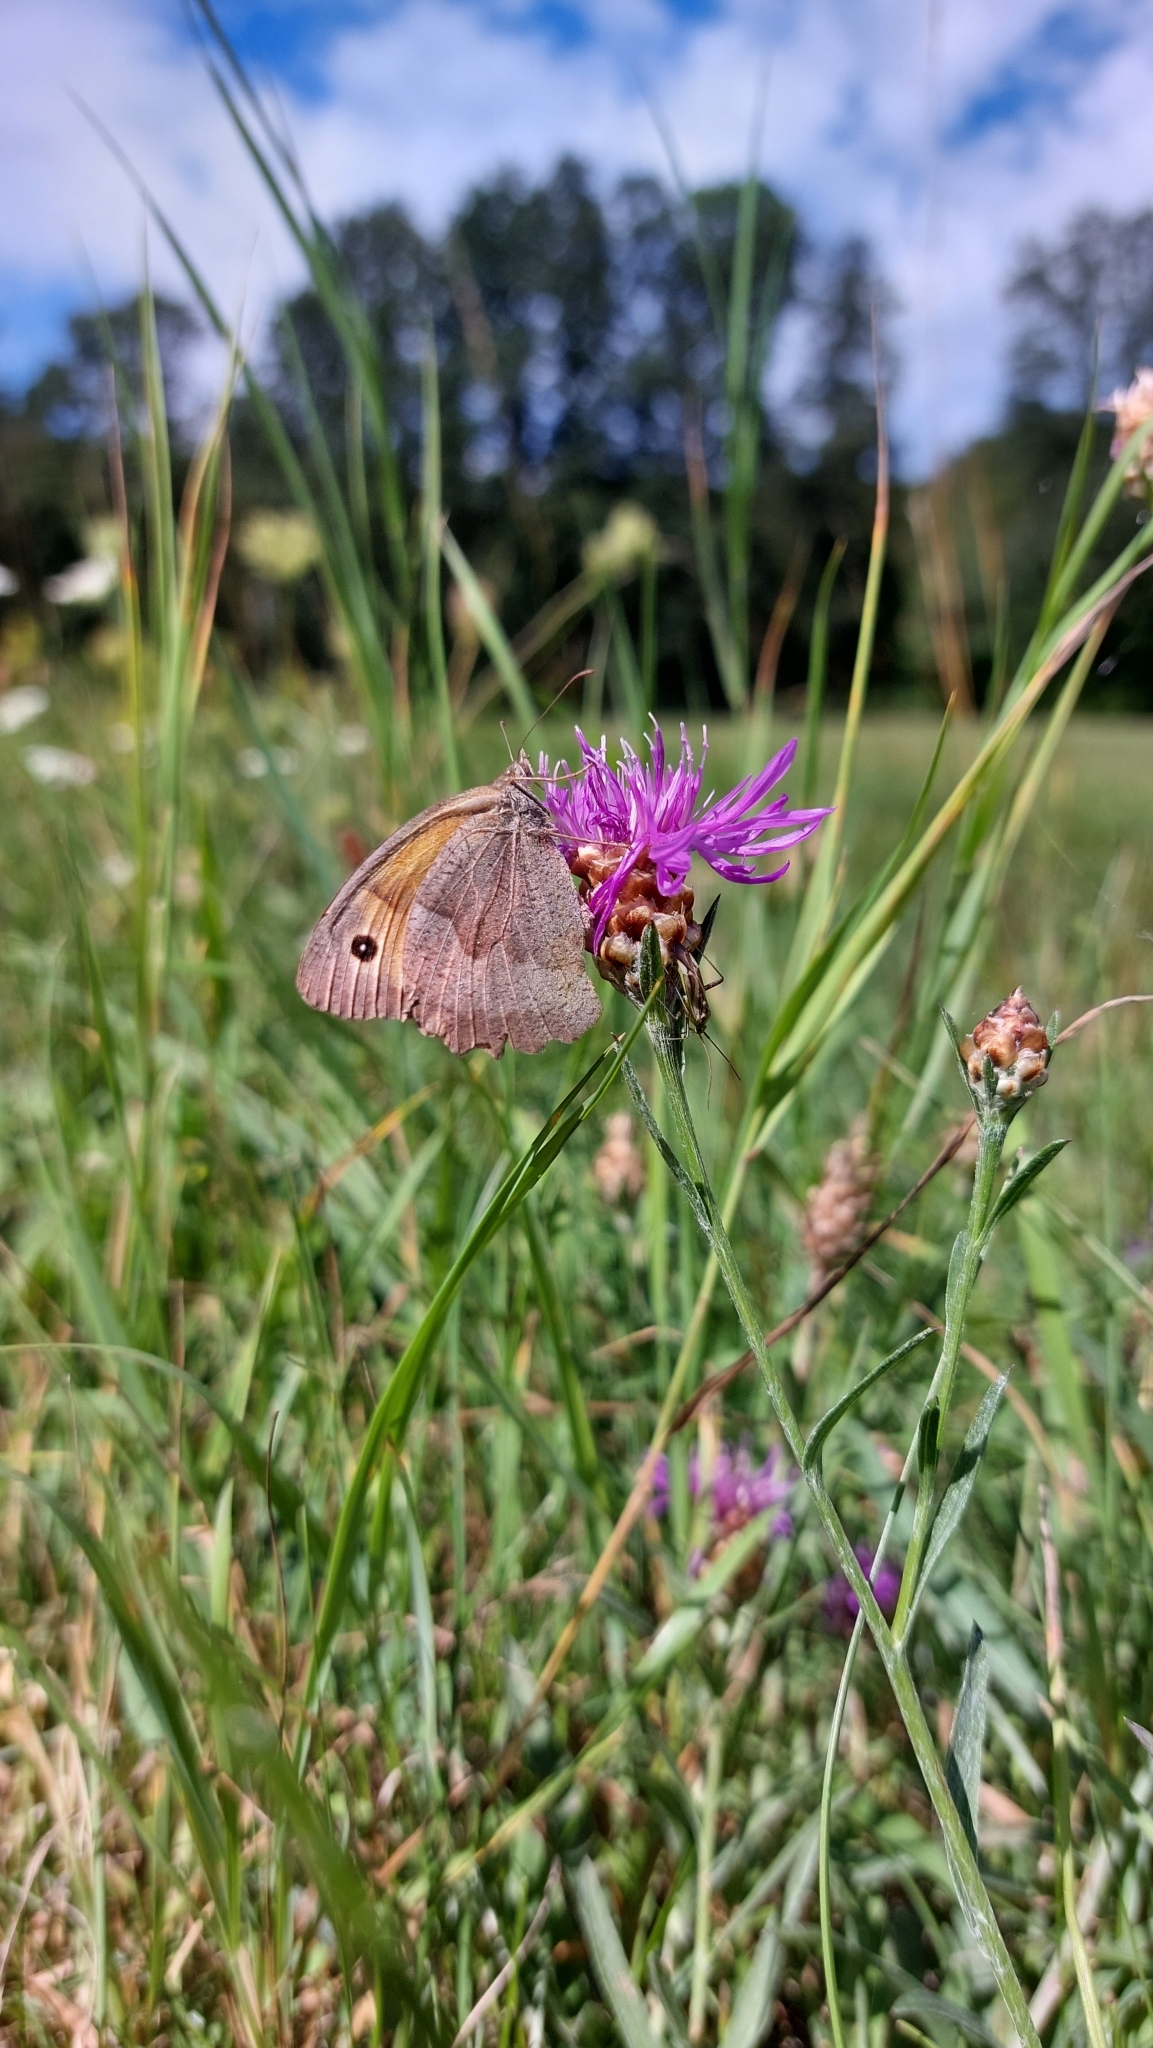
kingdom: Animalia
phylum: Arthropoda
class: Insecta
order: Lepidoptera
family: Nymphalidae
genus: Maniola
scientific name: Maniola jurtina
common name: Meadow brown
